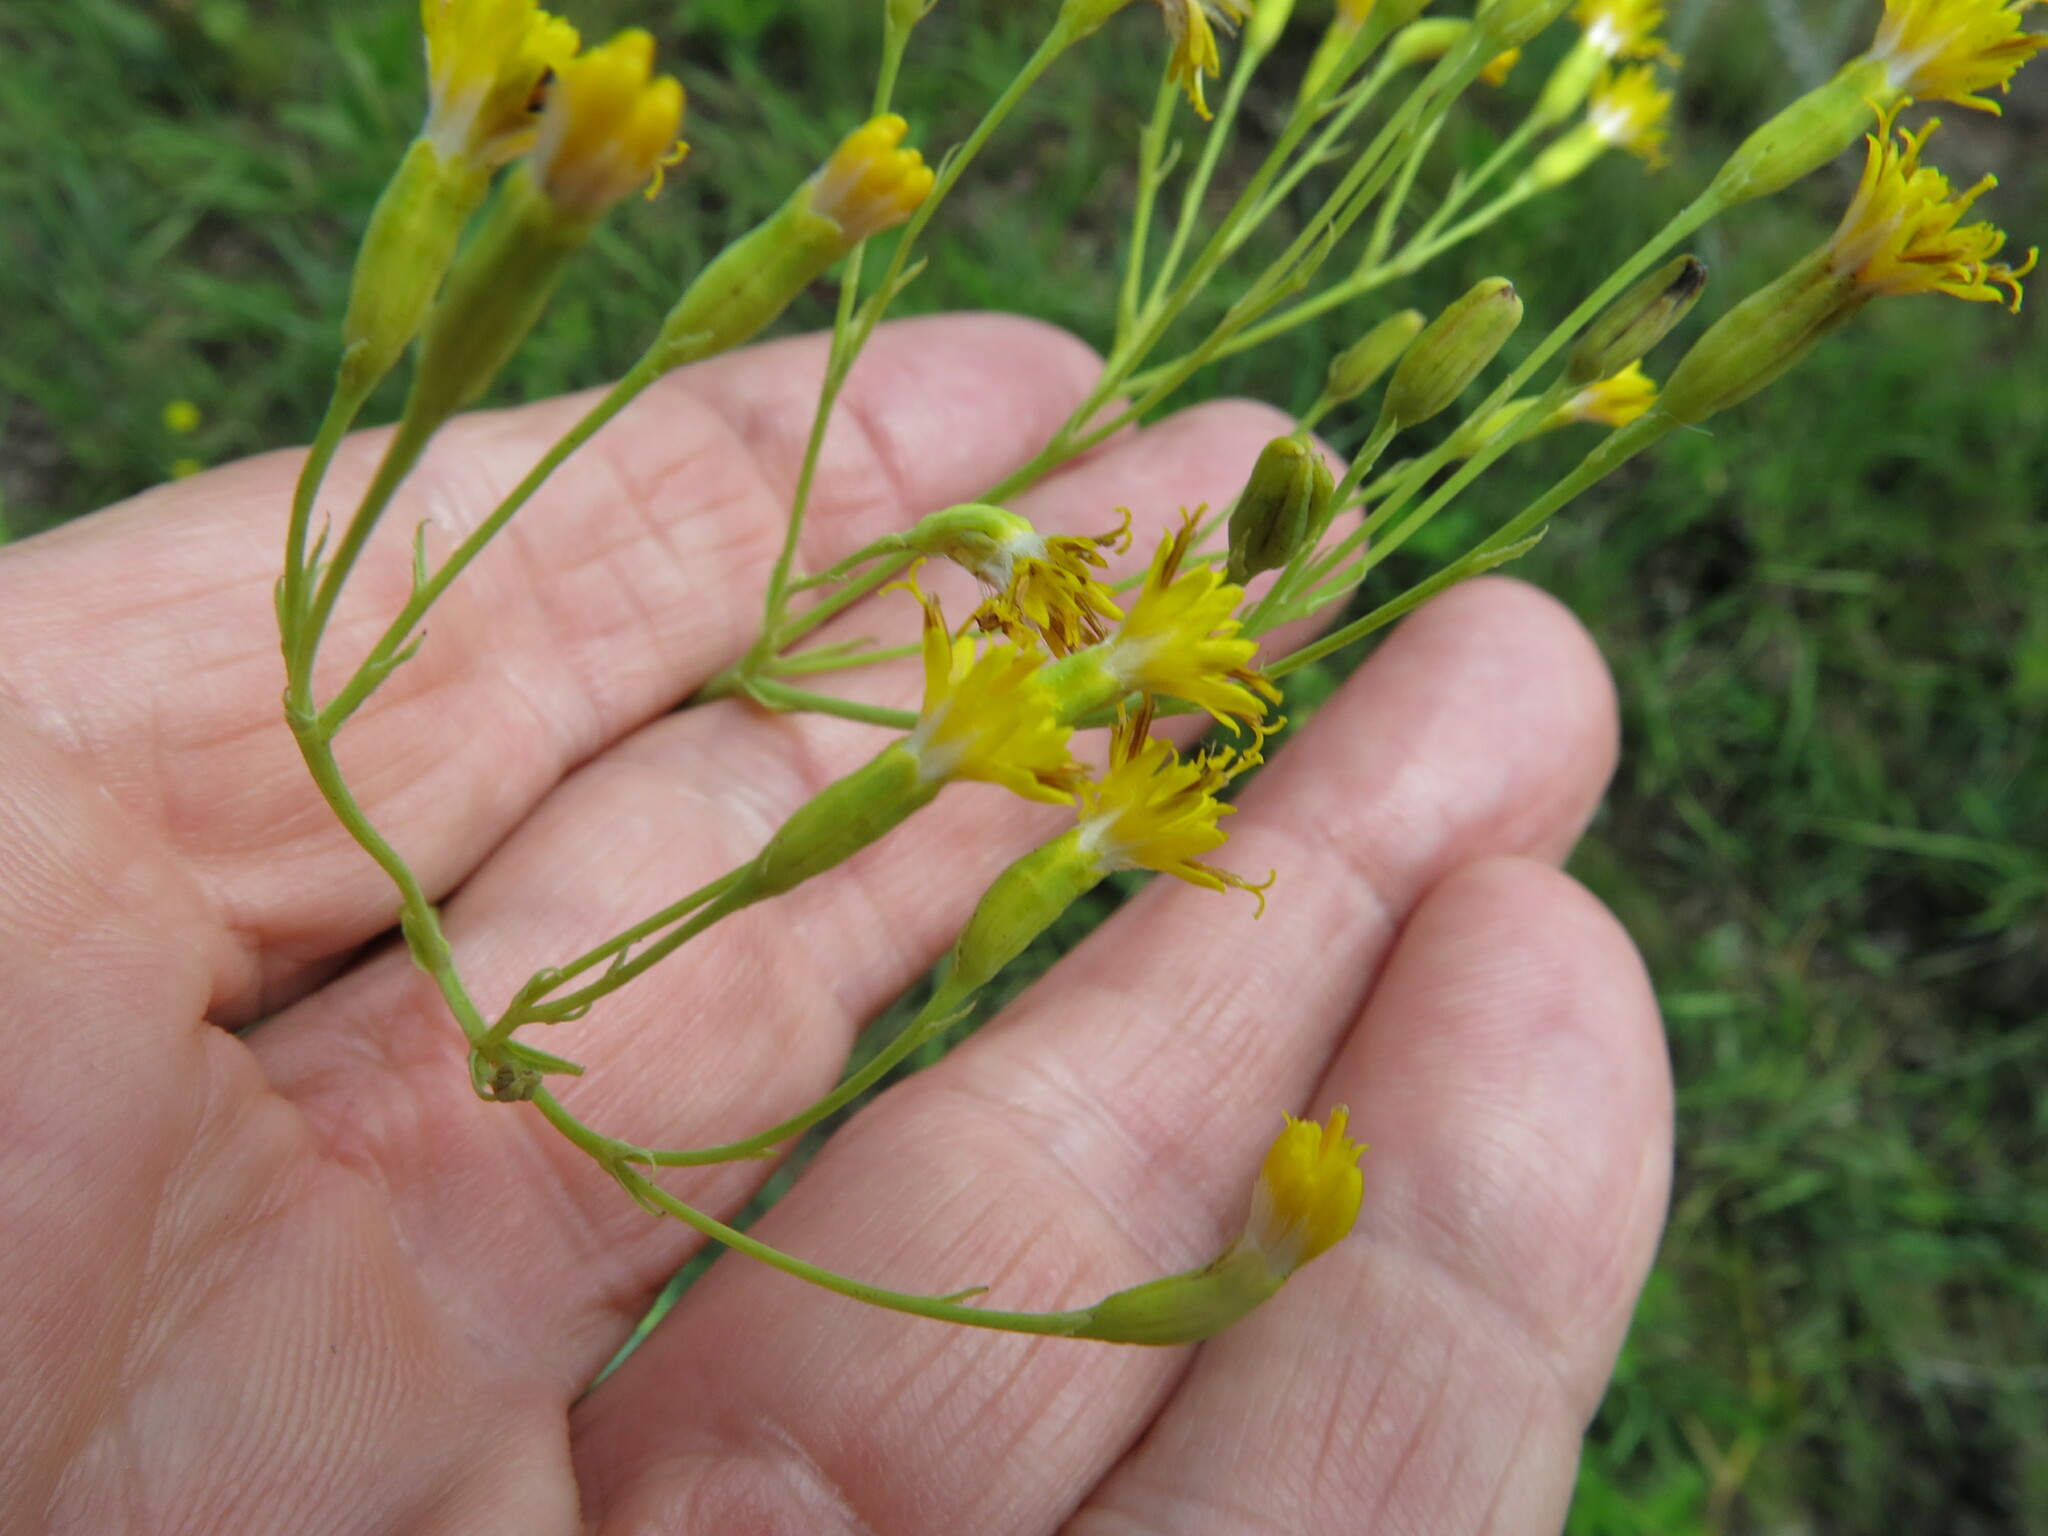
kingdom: Plantae
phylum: Tracheophyta
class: Magnoliopsida
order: Asterales
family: Asteraceae
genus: Senecio
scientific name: Senecio isatideus
